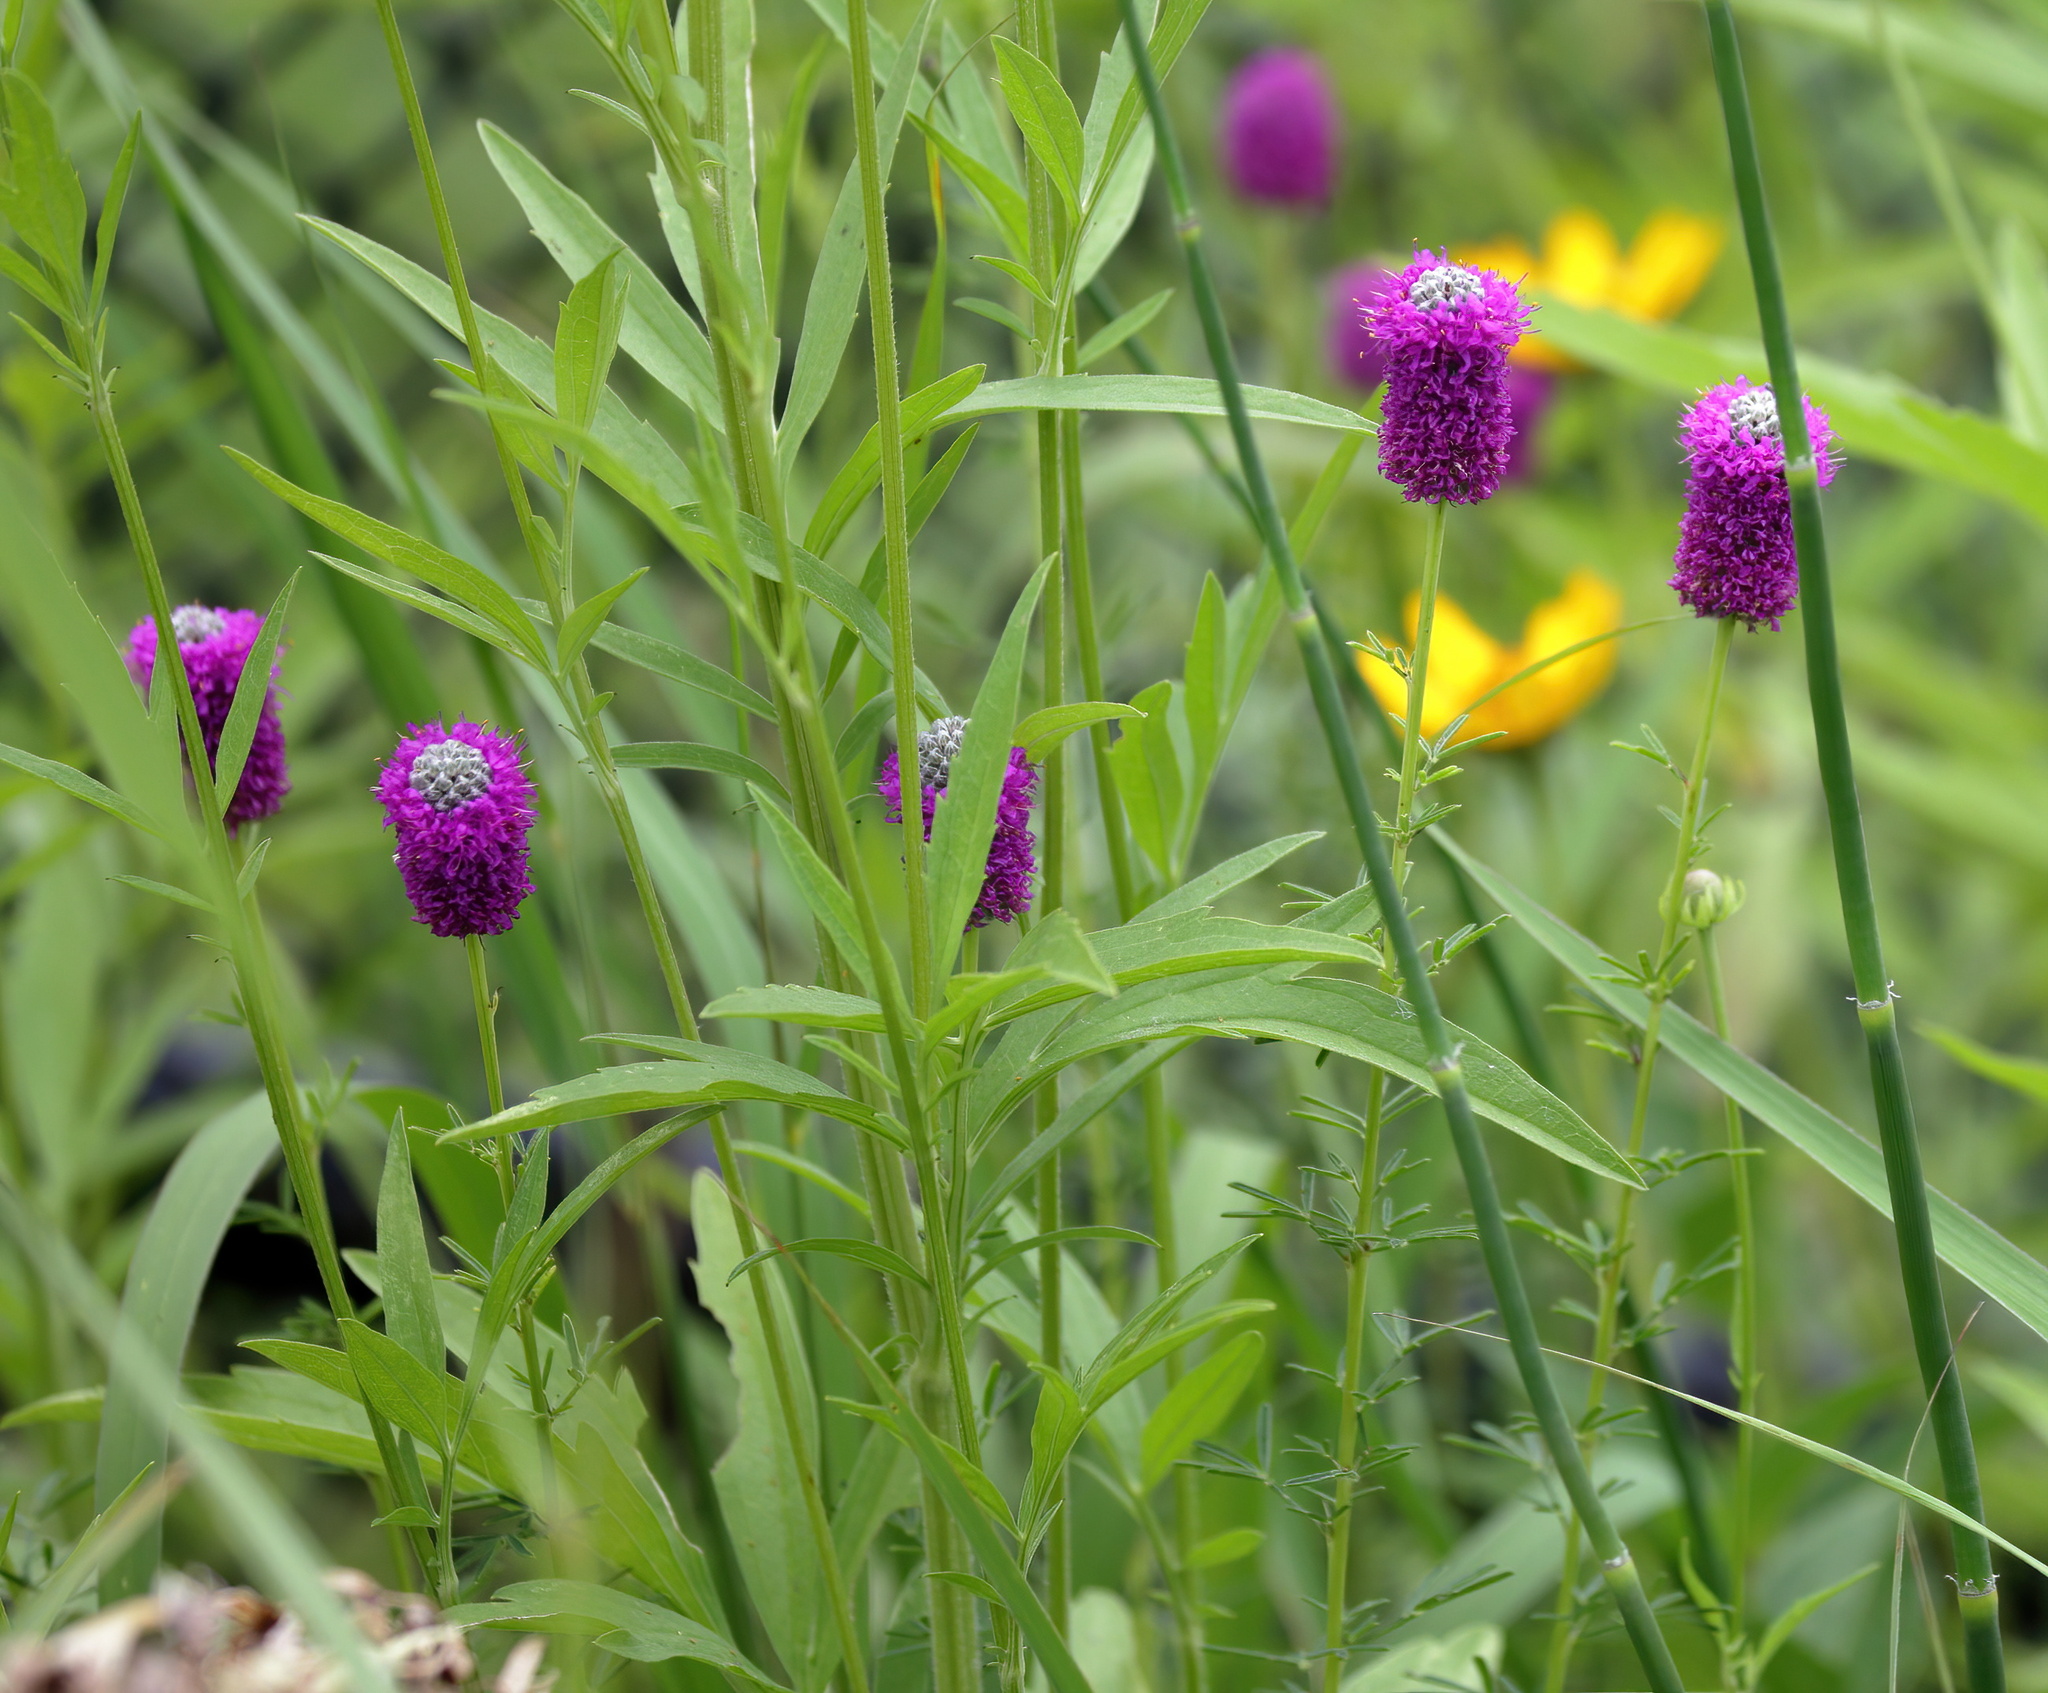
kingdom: Plantae
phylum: Tracheophyta
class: Magnoliopsida
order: Fabales
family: Fabaceae
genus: Dalea
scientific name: Dalea purpurea
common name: Purple prairie-clover
